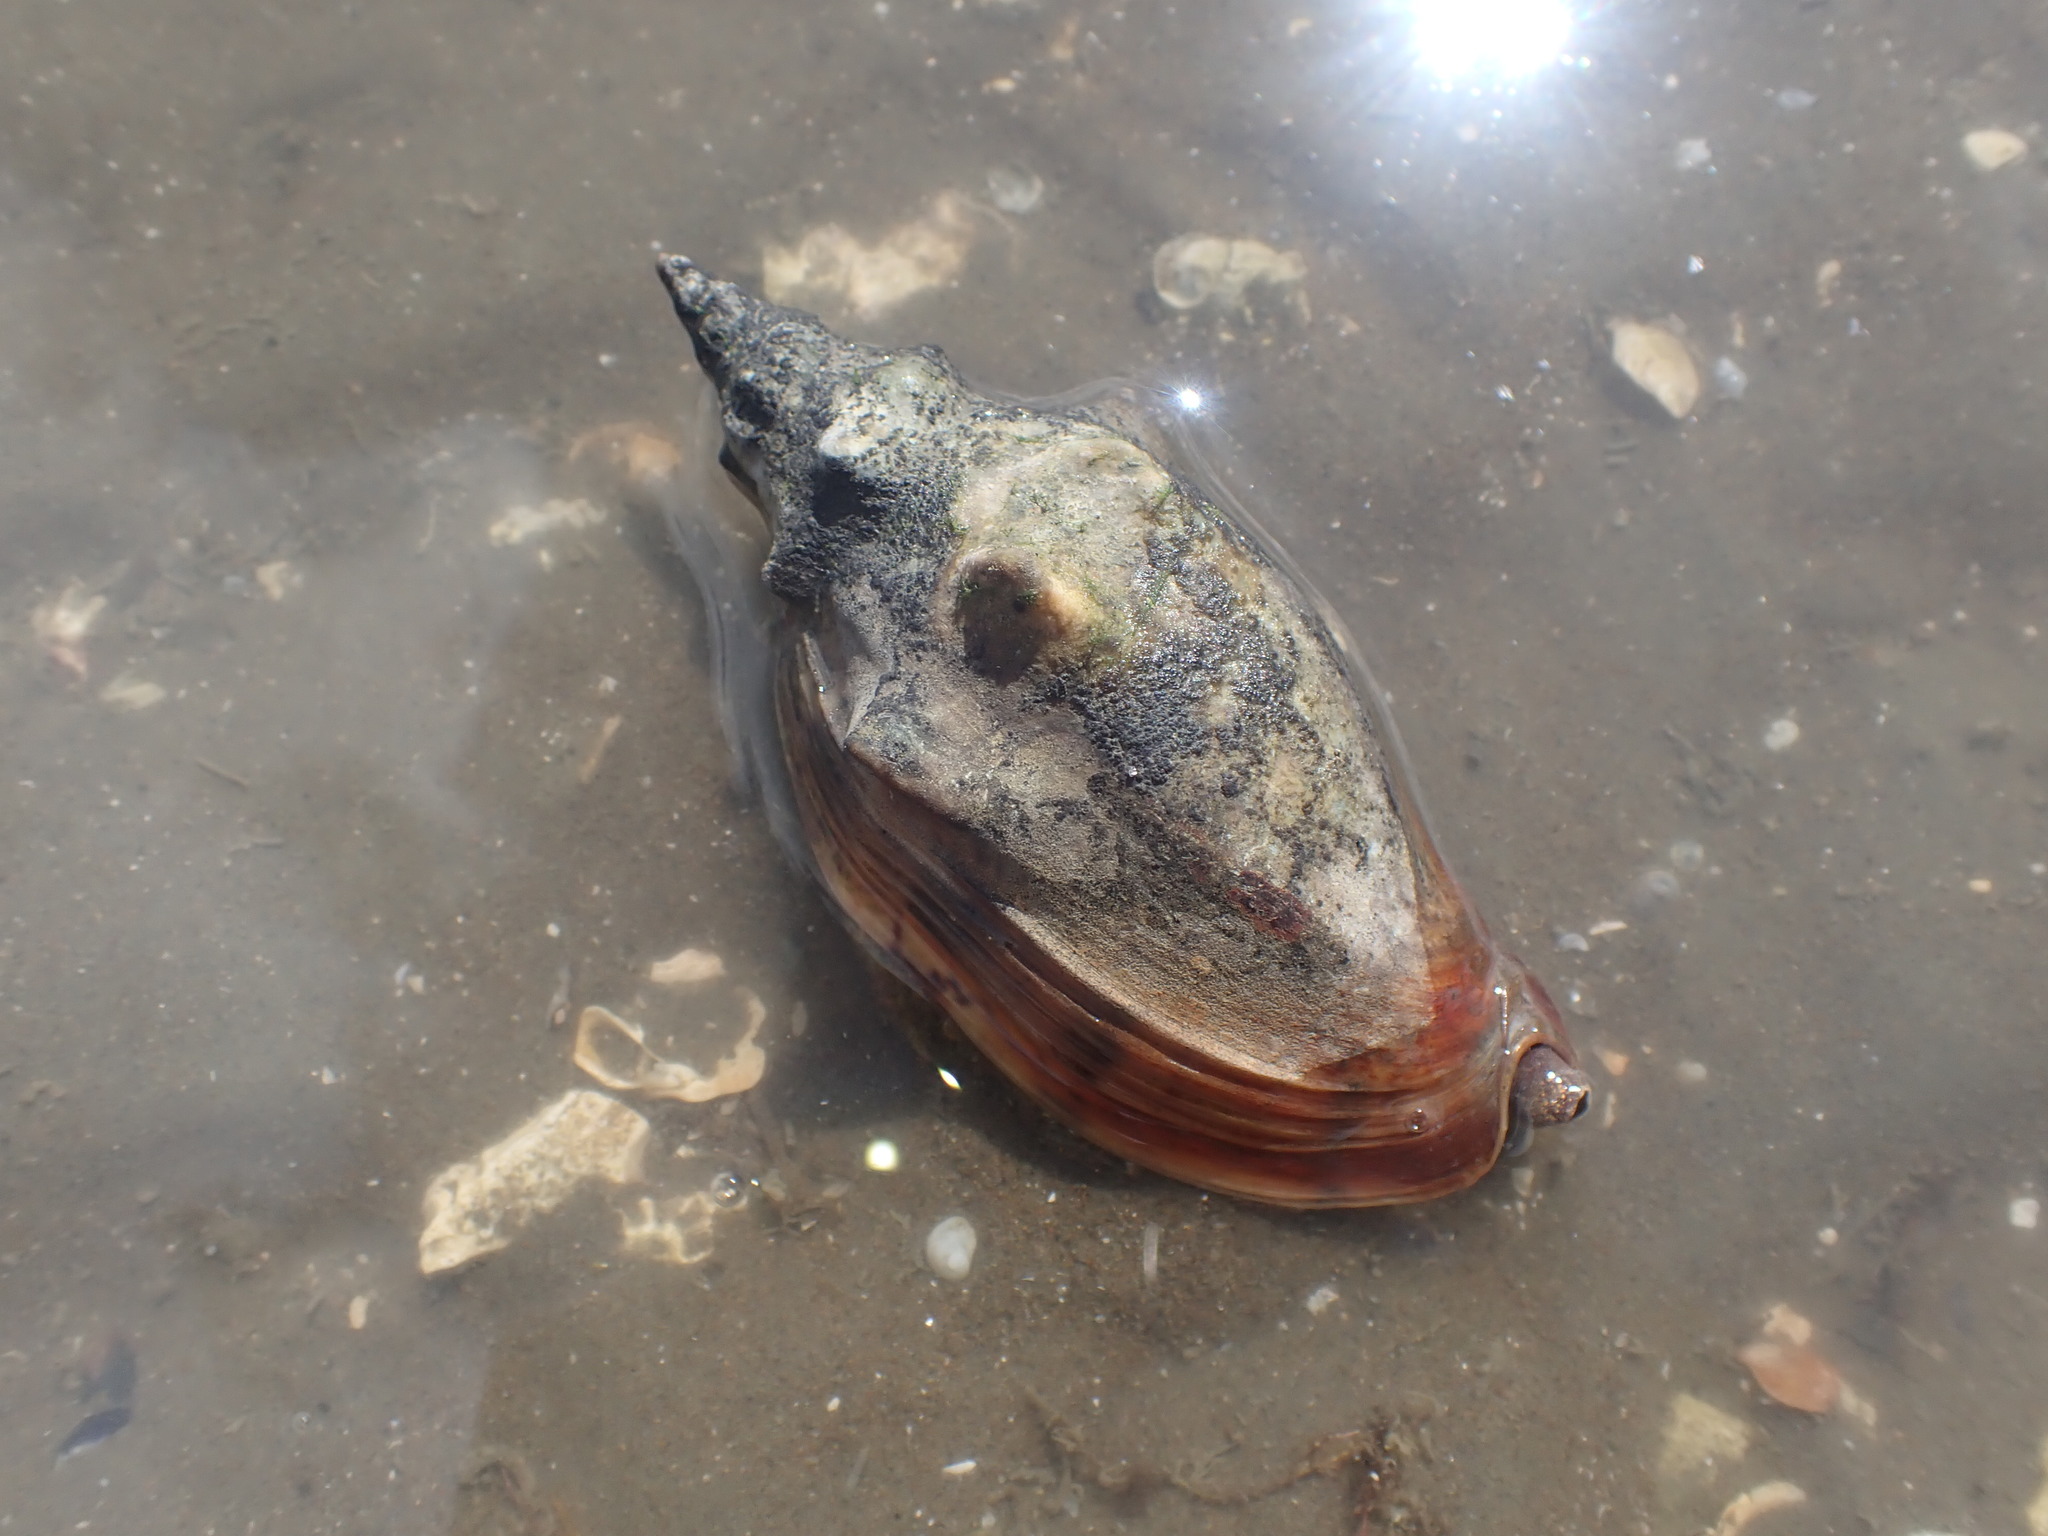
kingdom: Animalia
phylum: Mollusca
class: Gastropoda
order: Neogastropoda
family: Volutidae
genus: Alcithoe
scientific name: Alcithoe arabica
